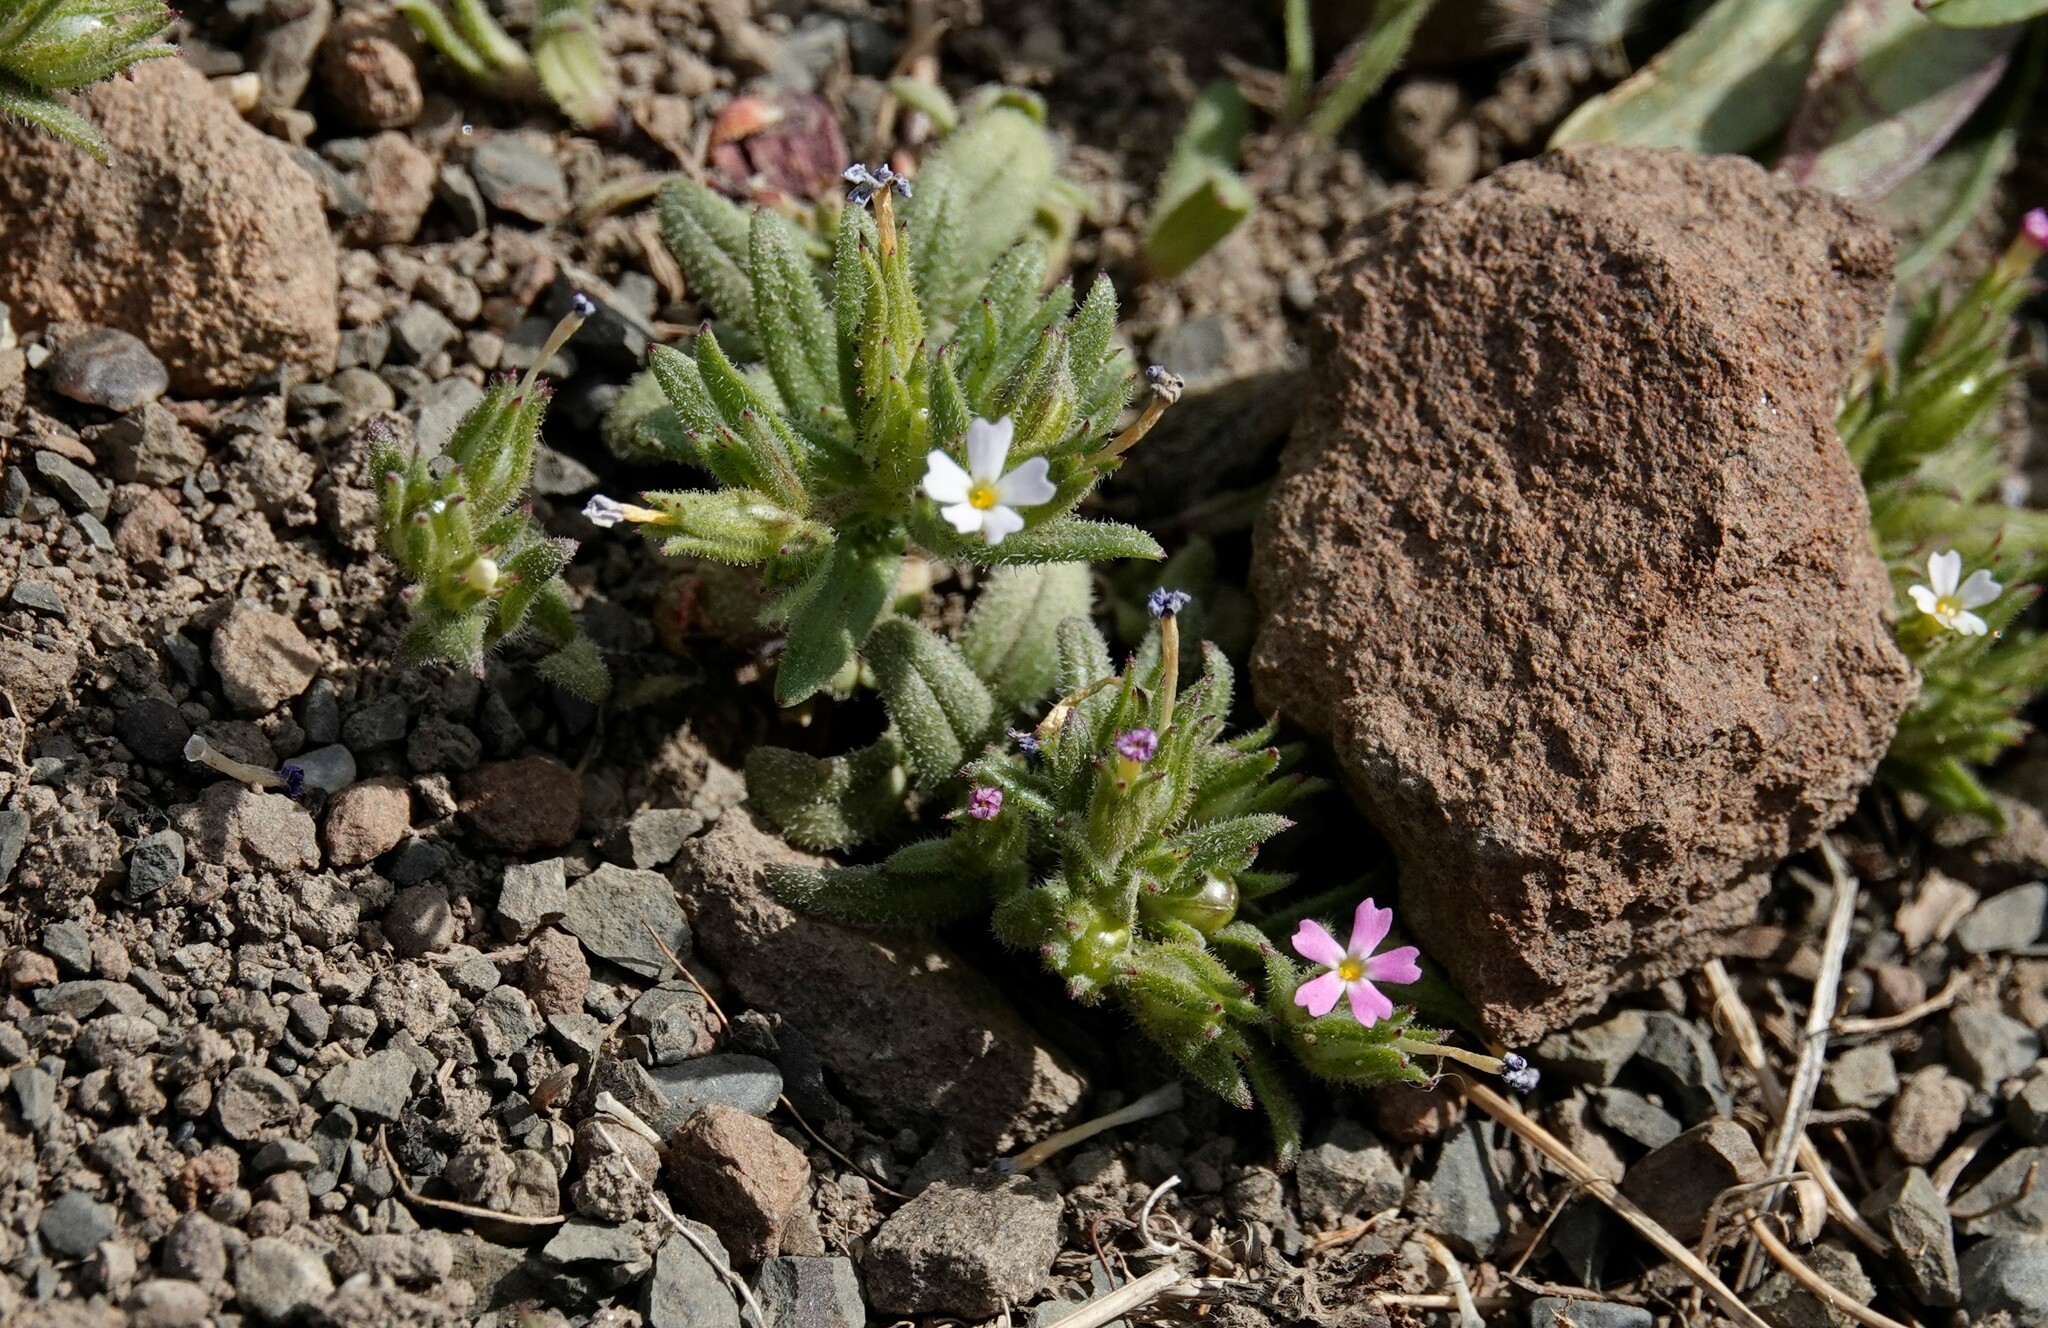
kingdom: Plantae
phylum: Tracheophyta
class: Magnoliopsida
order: Ericales
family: Polemoniaceae
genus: Phlox
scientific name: Phlox gracilis
